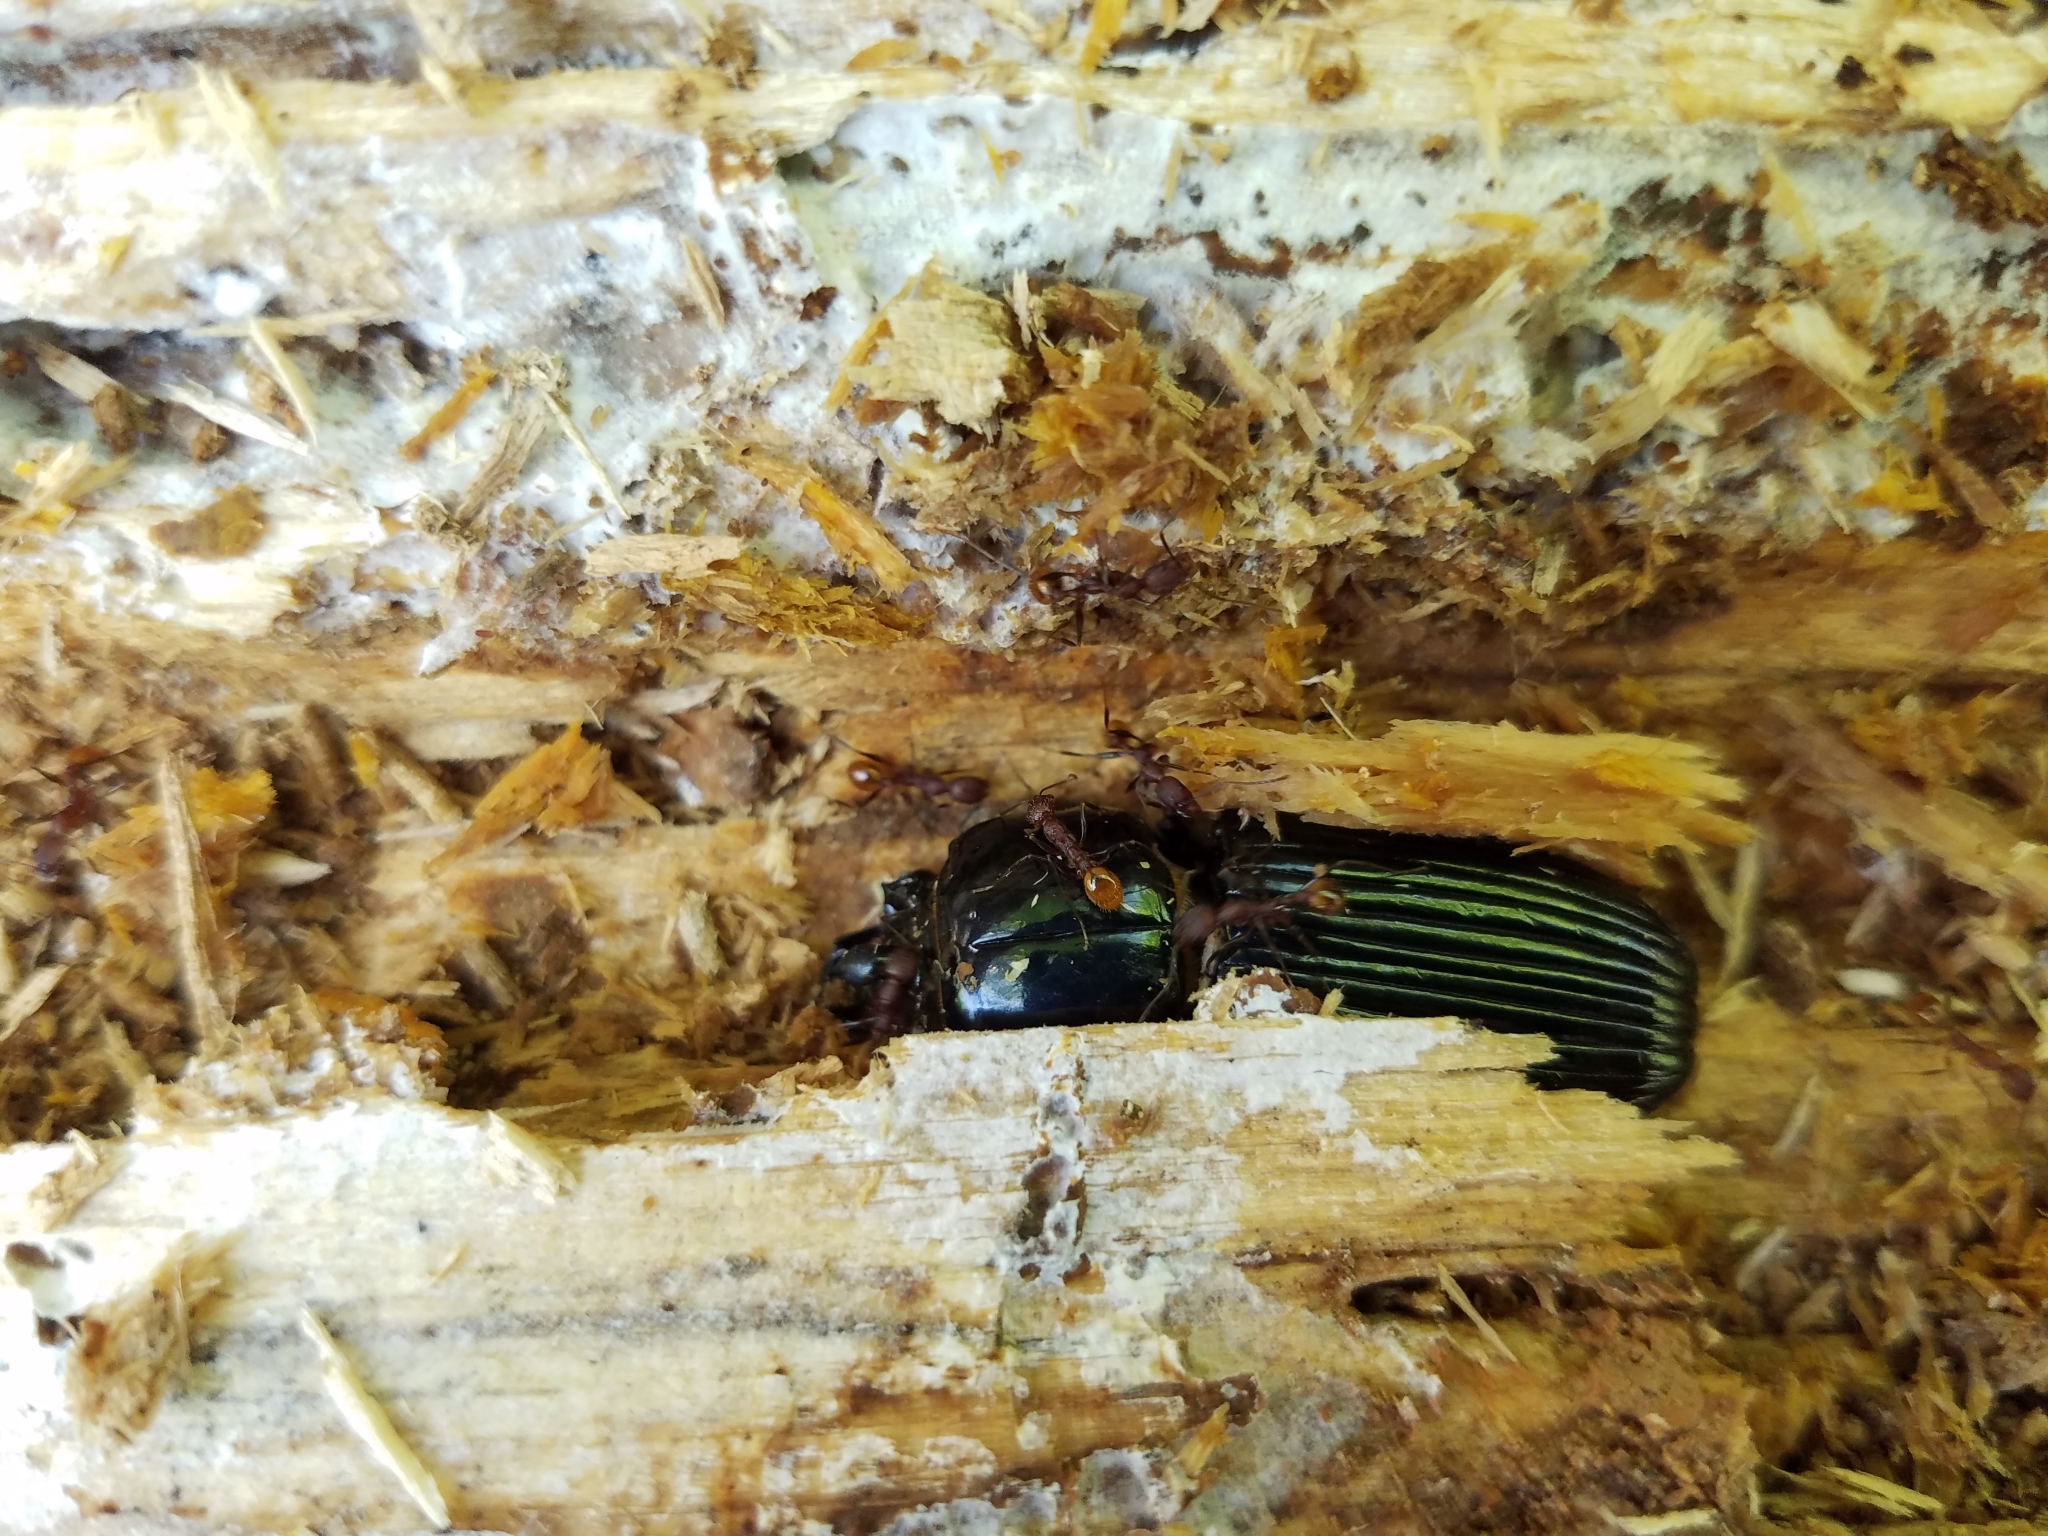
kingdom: Animalia
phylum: Arthropoda
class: Insecta
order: Coleoptera
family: Passalidae
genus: Odontotaenius
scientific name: Odontotaenius disjunctus
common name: Patent leather beetle
